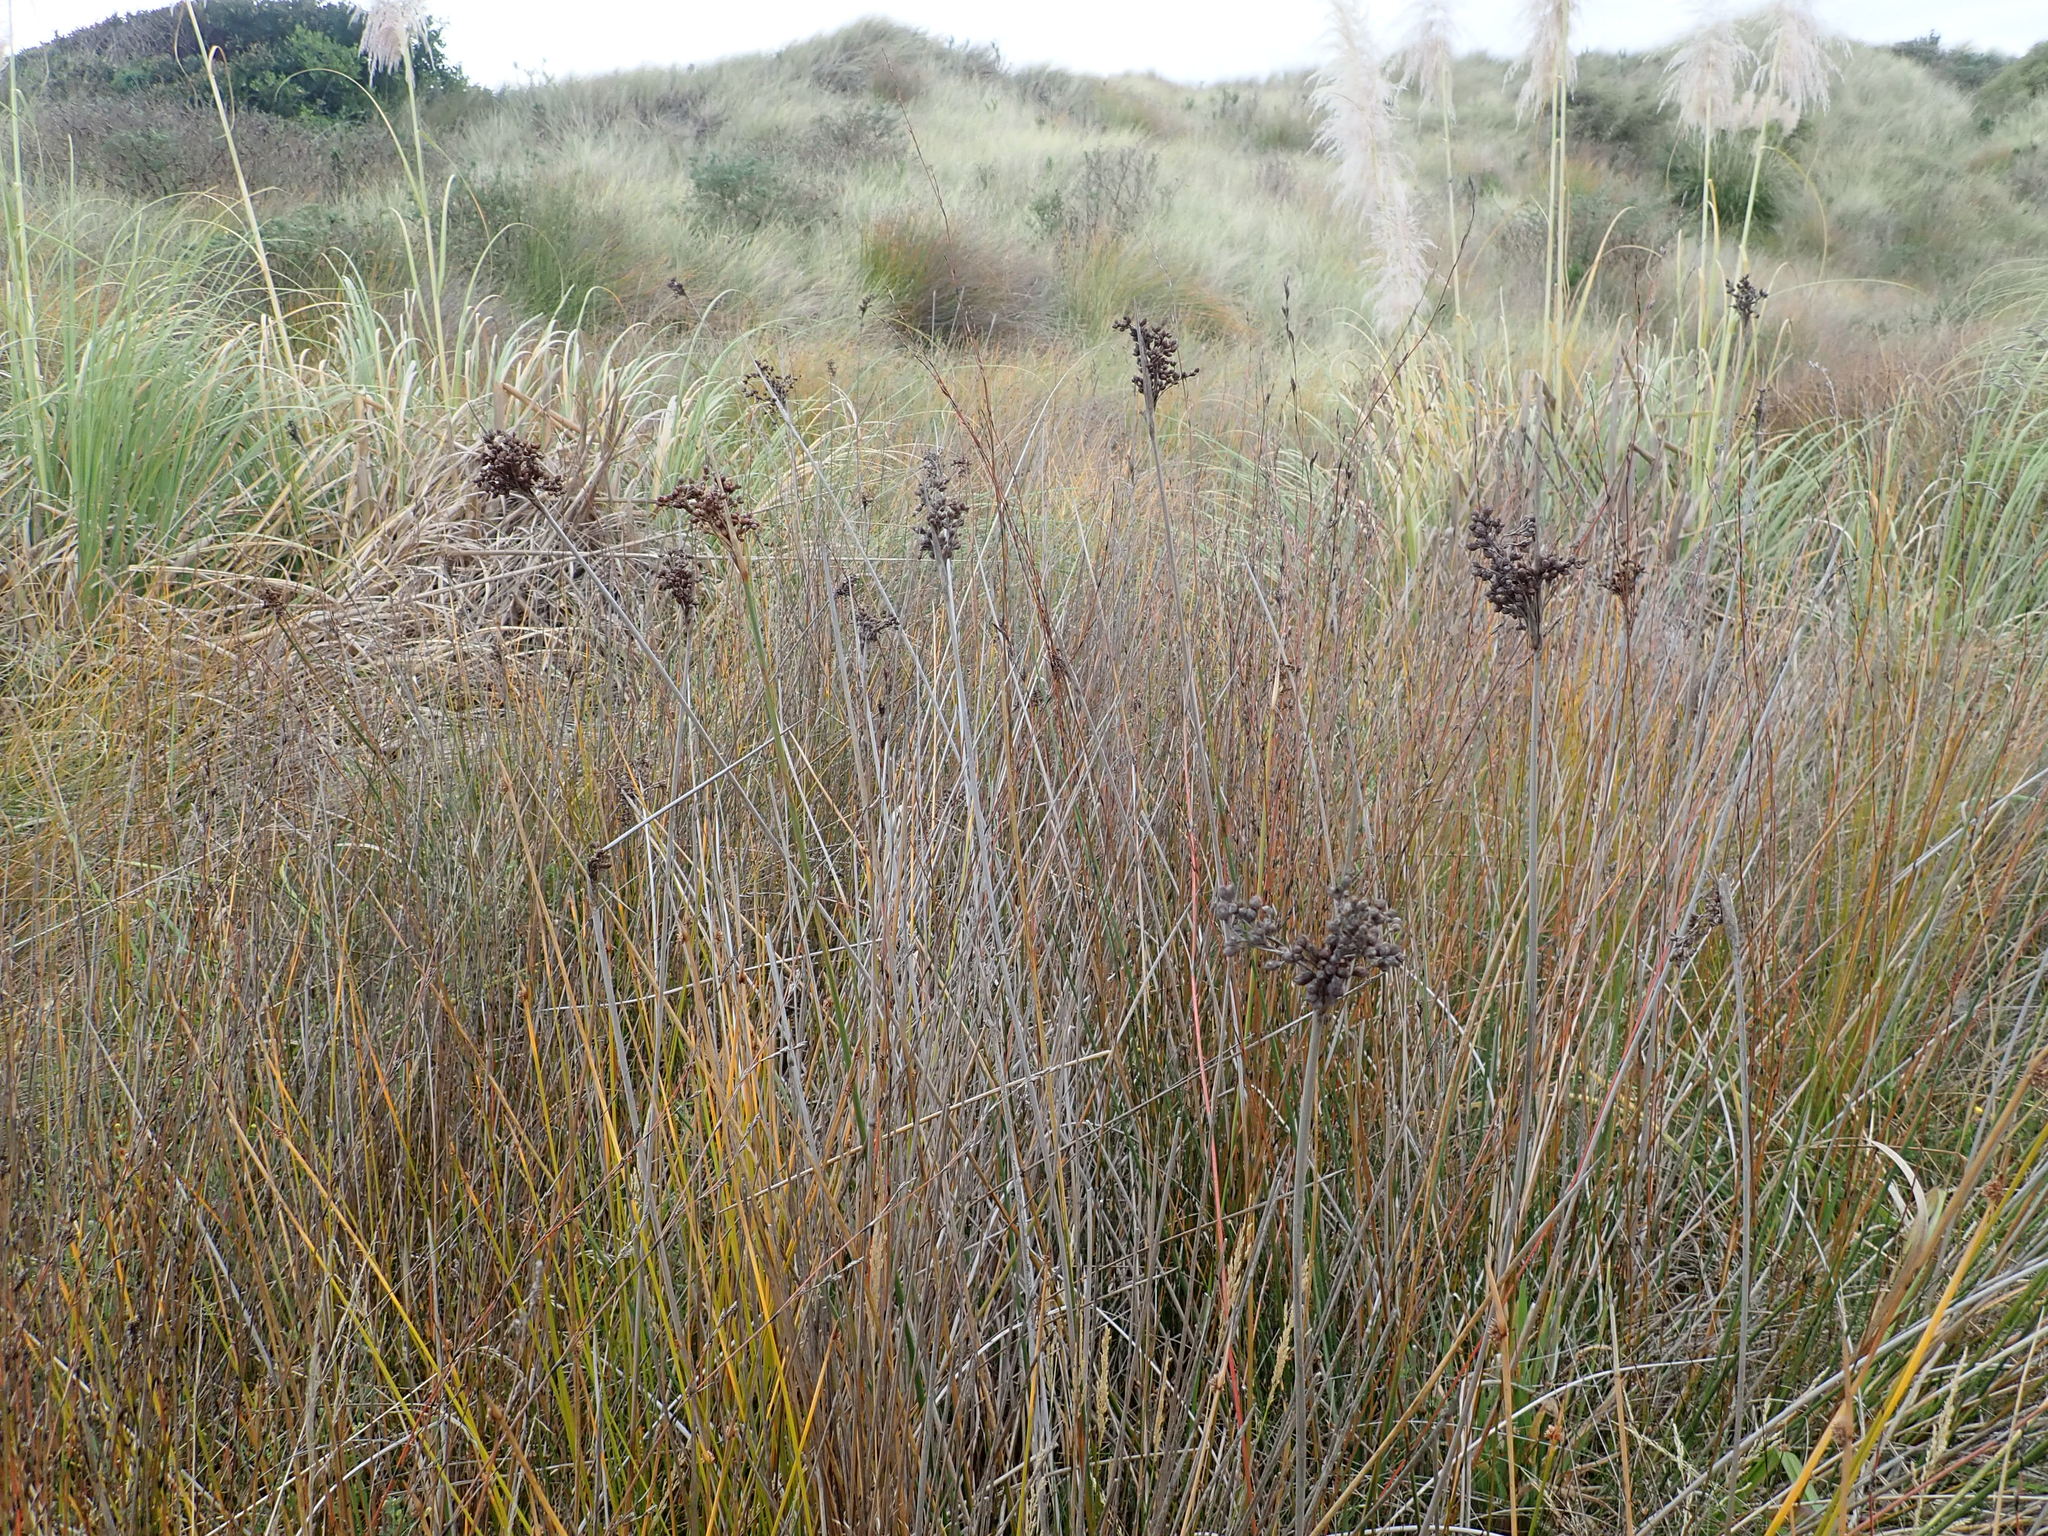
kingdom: Plantae
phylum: Tracheophyta
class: Liliopsida
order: Poales
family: Juncaceae
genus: Juncus
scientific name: Juncus acutus
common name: Sharp rush
